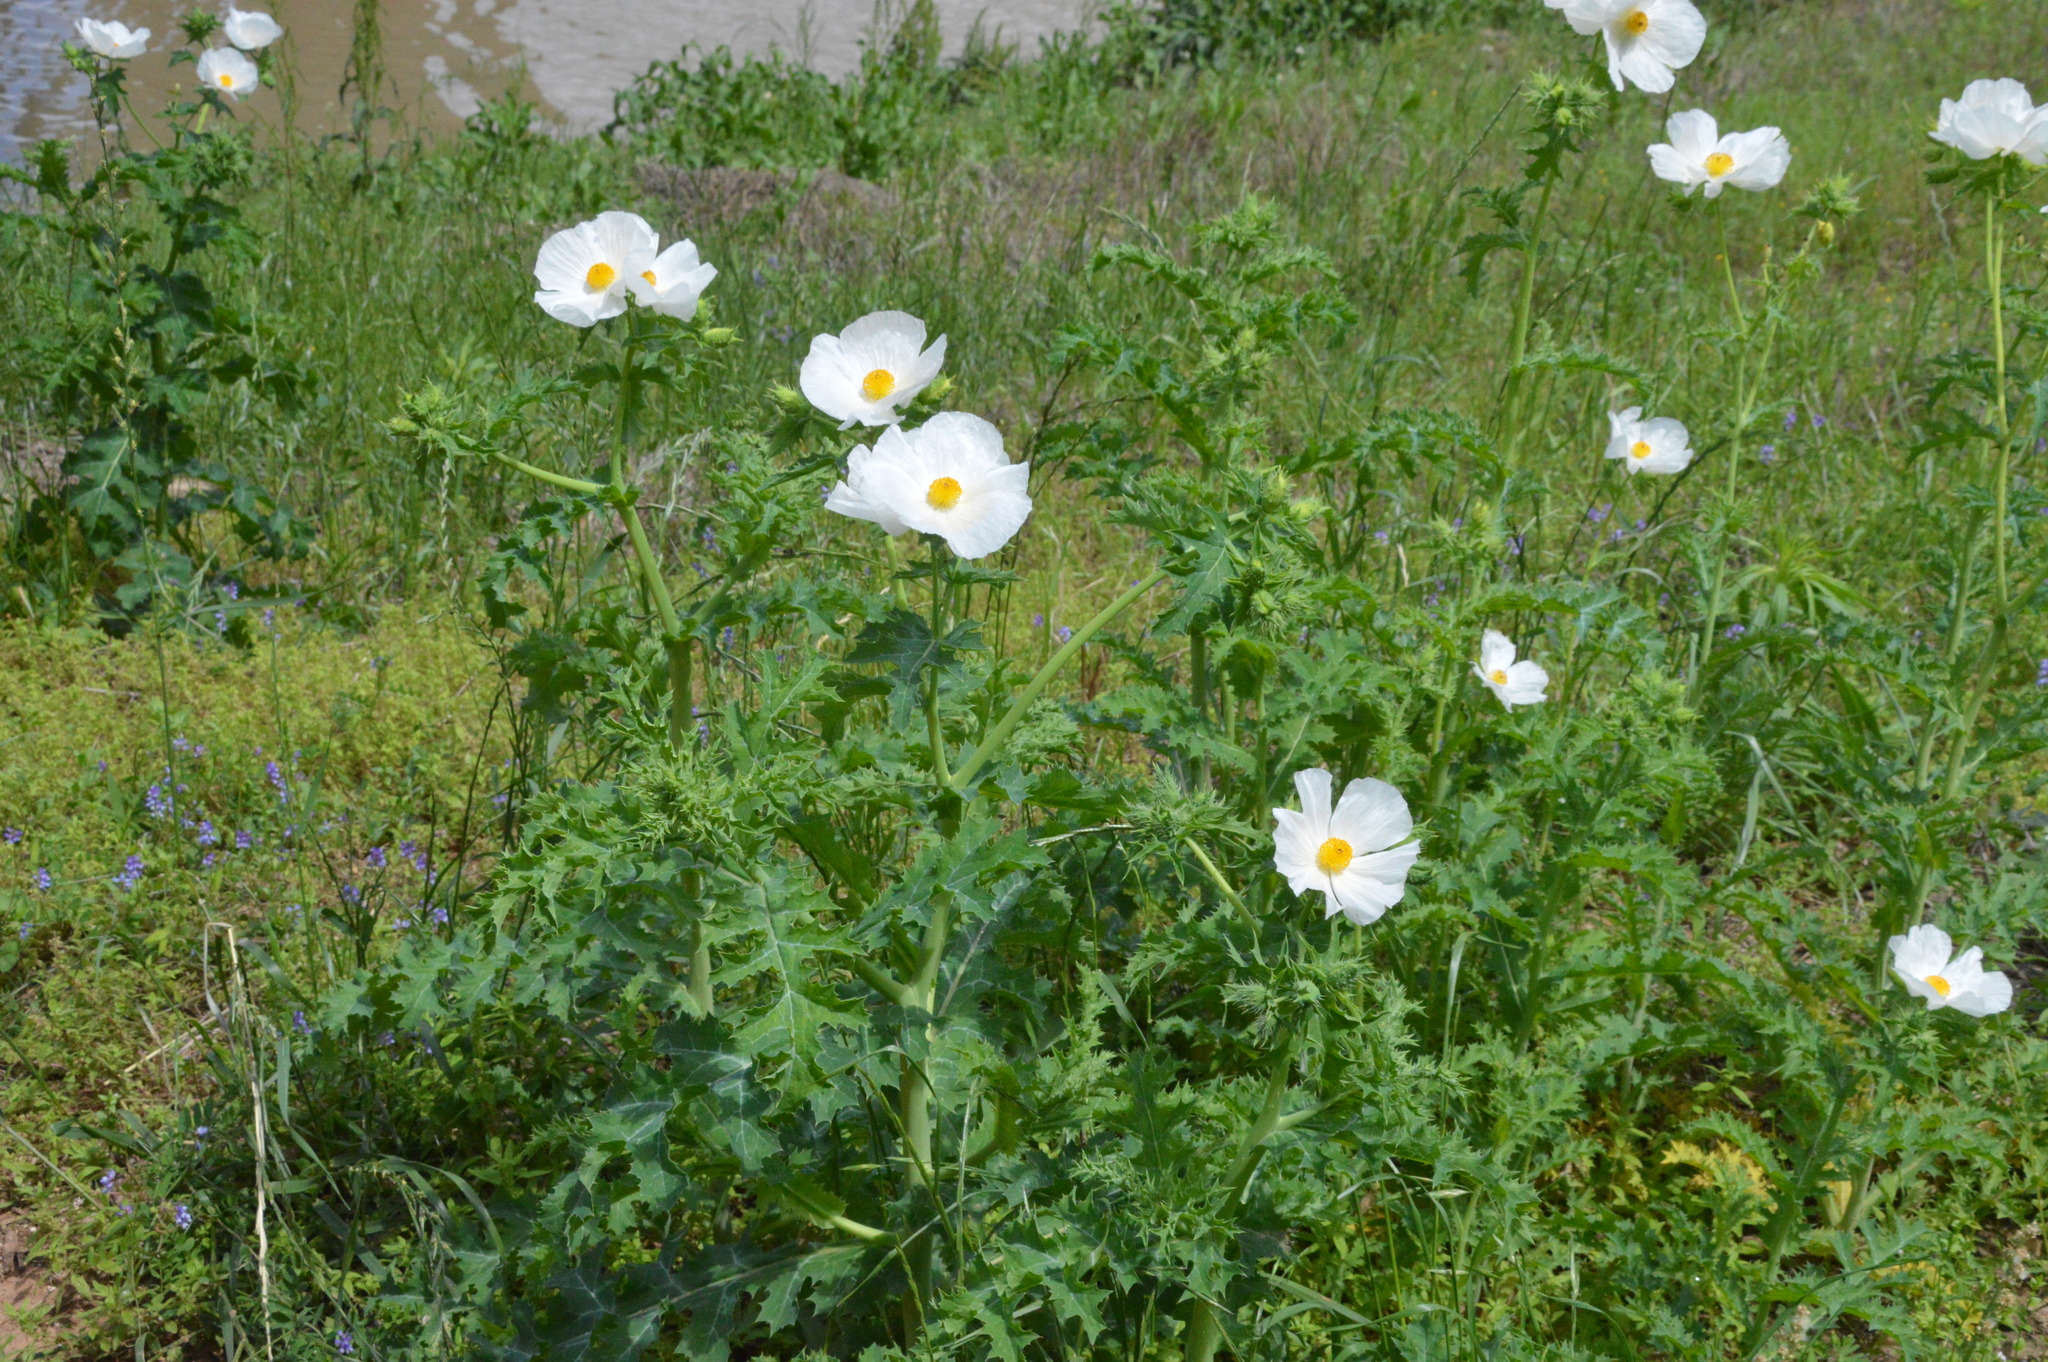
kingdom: Plantae
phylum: Tracheophyta
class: Magnoliopsida
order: Ranunculales
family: Papaveraceae
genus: Argemone
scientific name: Argemone albiflora
